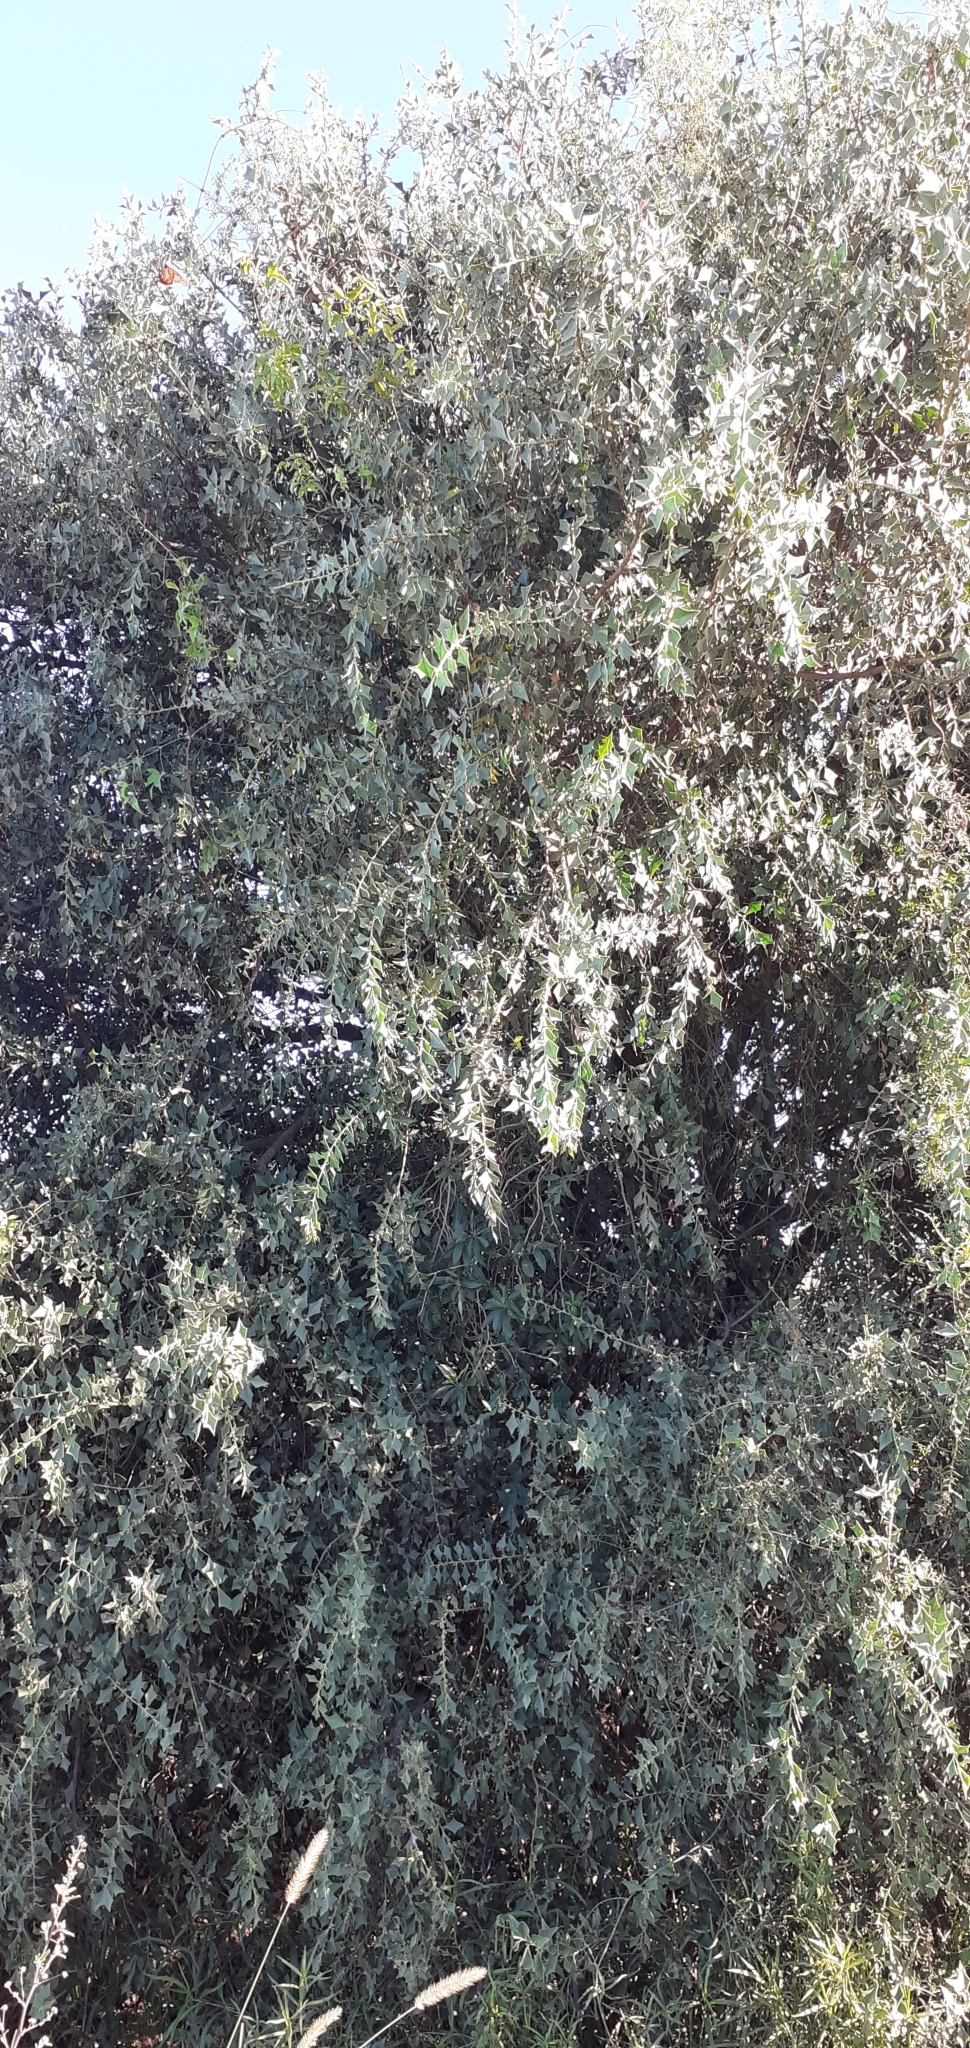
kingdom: Plantae
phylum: Tracheophyta
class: Magnoliopsida
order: Santalales
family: Cervantesiaceae
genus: Jodina
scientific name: Jodina rhombifolia
